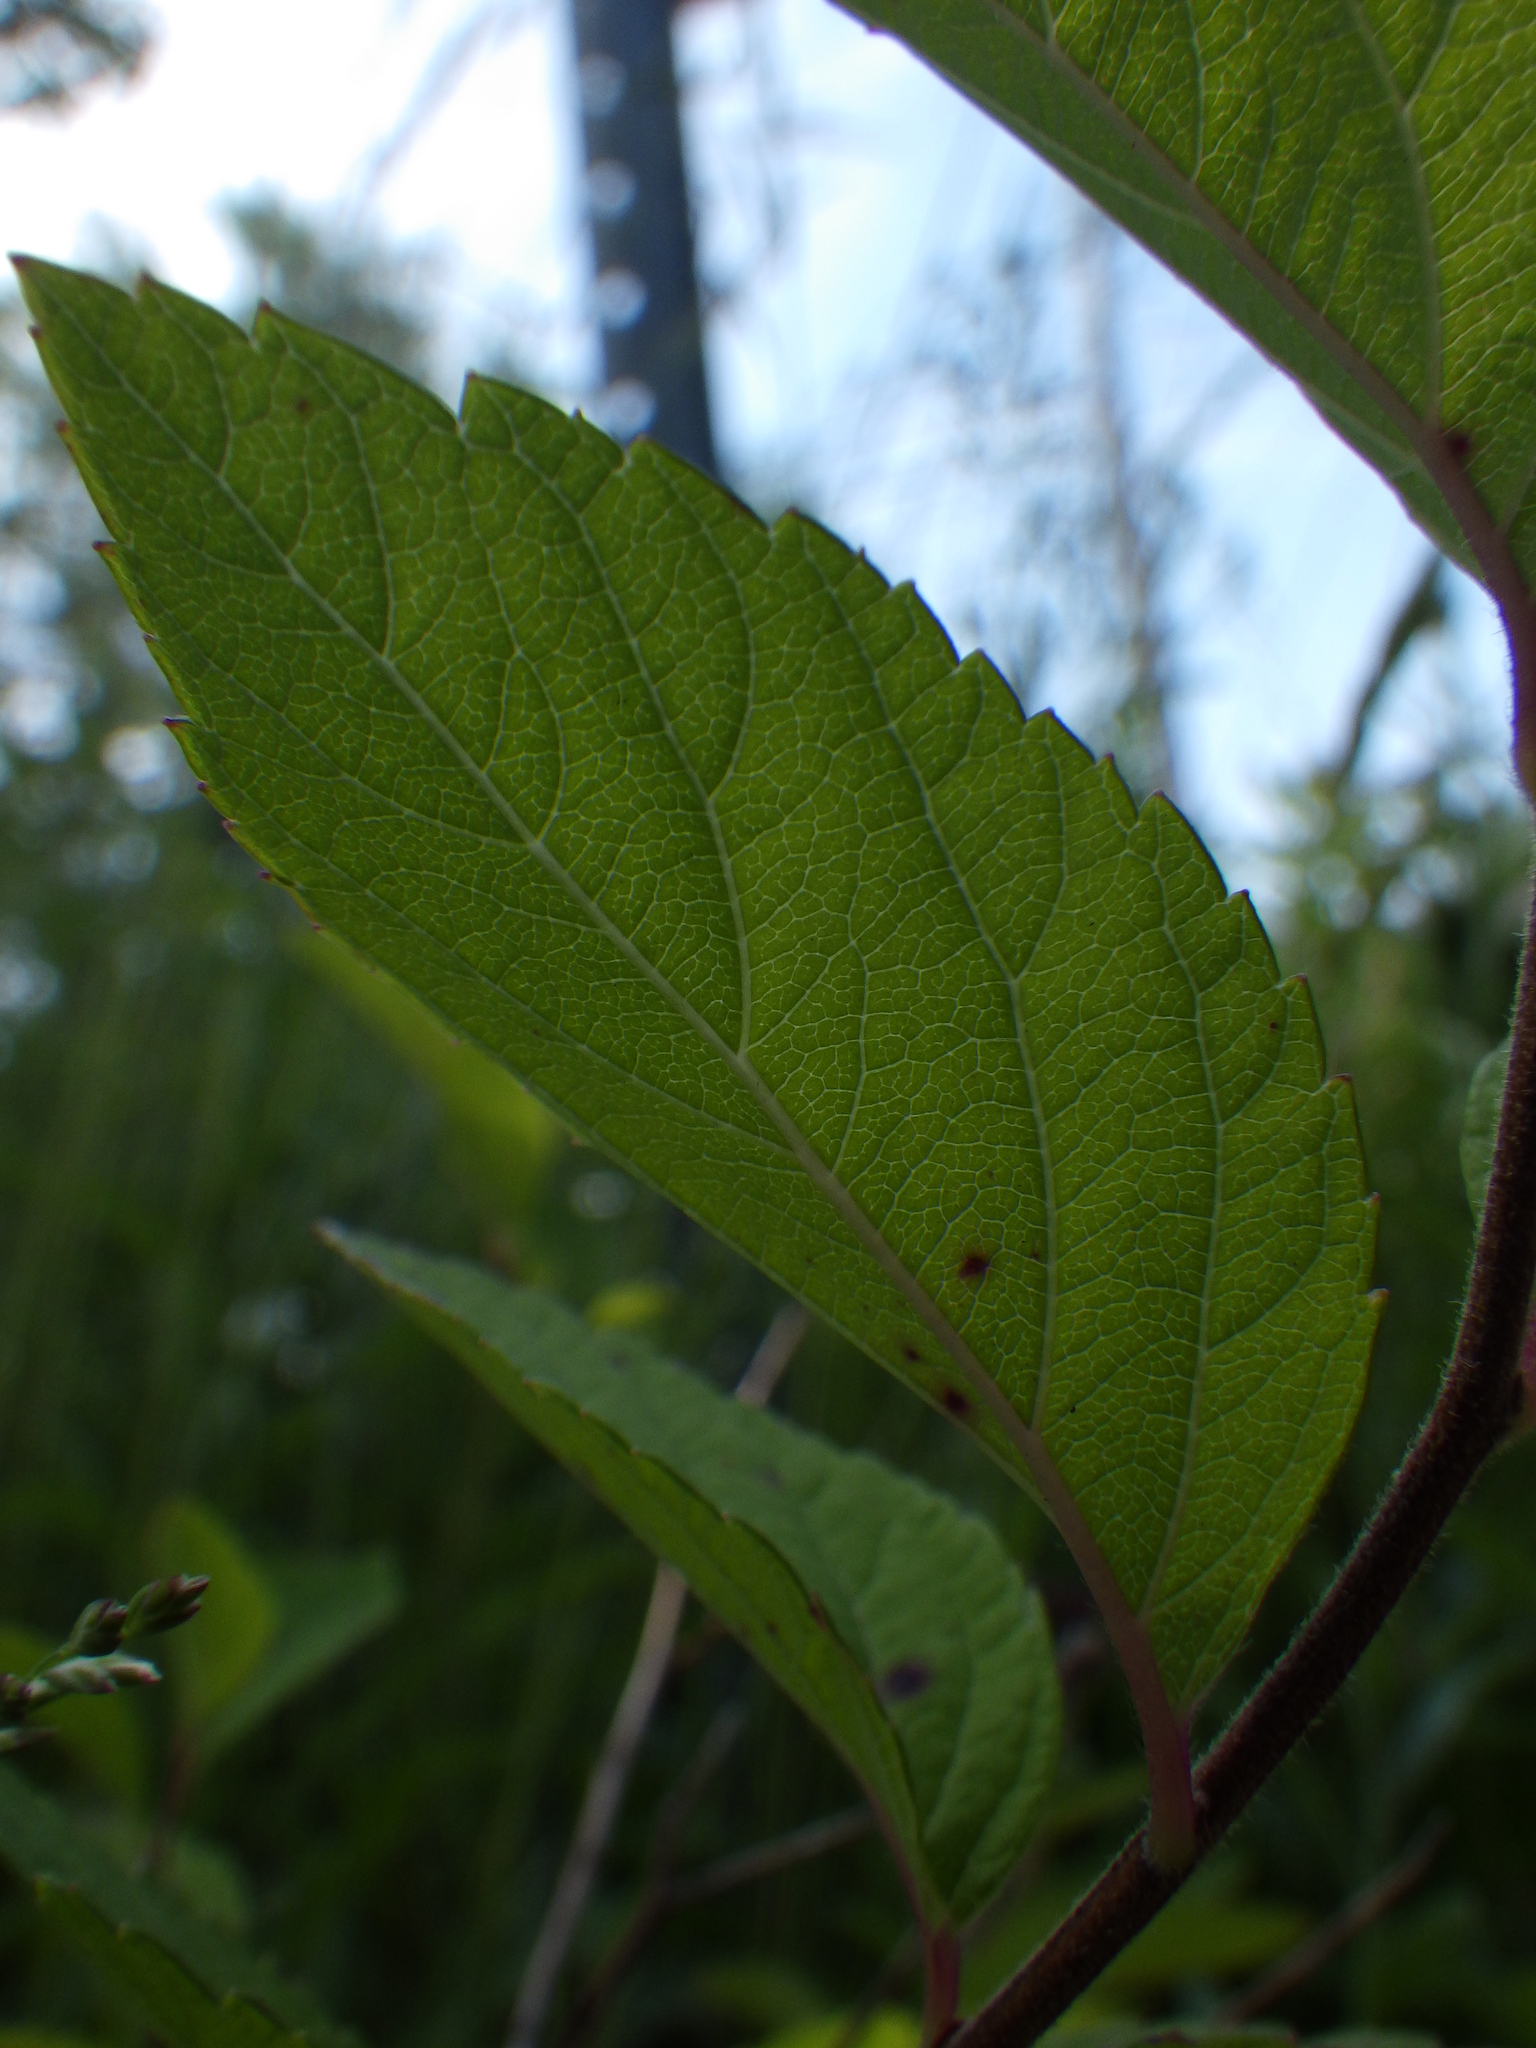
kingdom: Plantae
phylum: Tracheophyta
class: Magnoliopsida
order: Rosales
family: Rosaceae
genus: Spiraea
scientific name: Spiraea japonica
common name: Japanese spiraea
